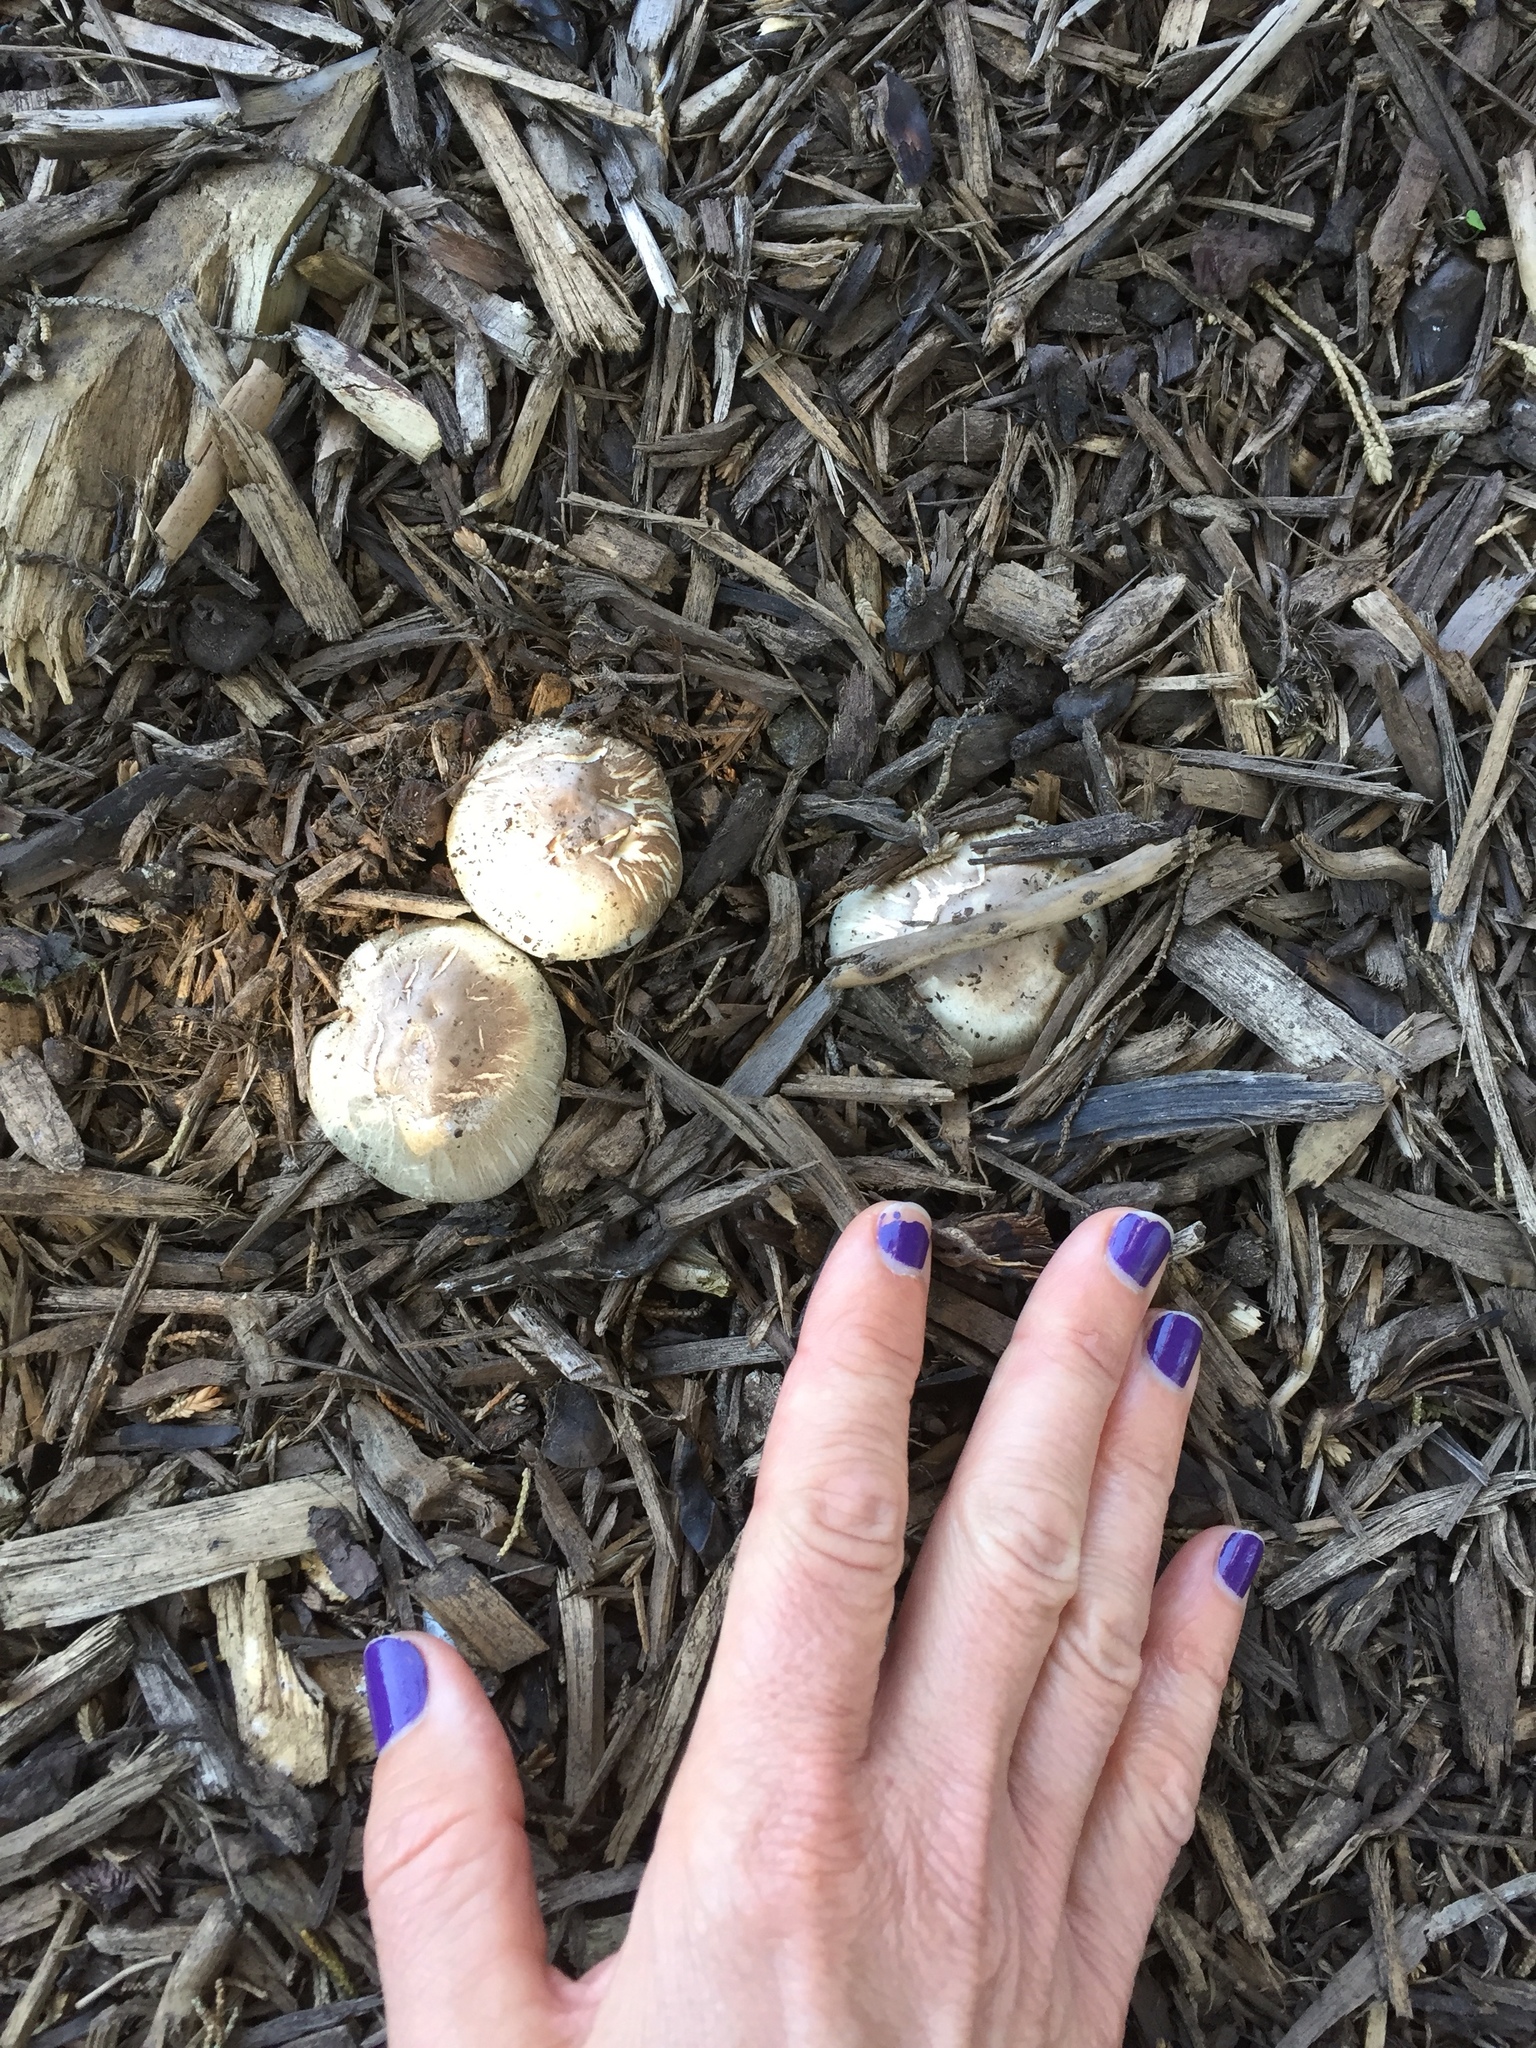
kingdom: Fungi
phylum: Basidiomycota
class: Agaricomycetes
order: Agaricales
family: Agaricaceae
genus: Agaricus
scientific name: Agaricus californicus
